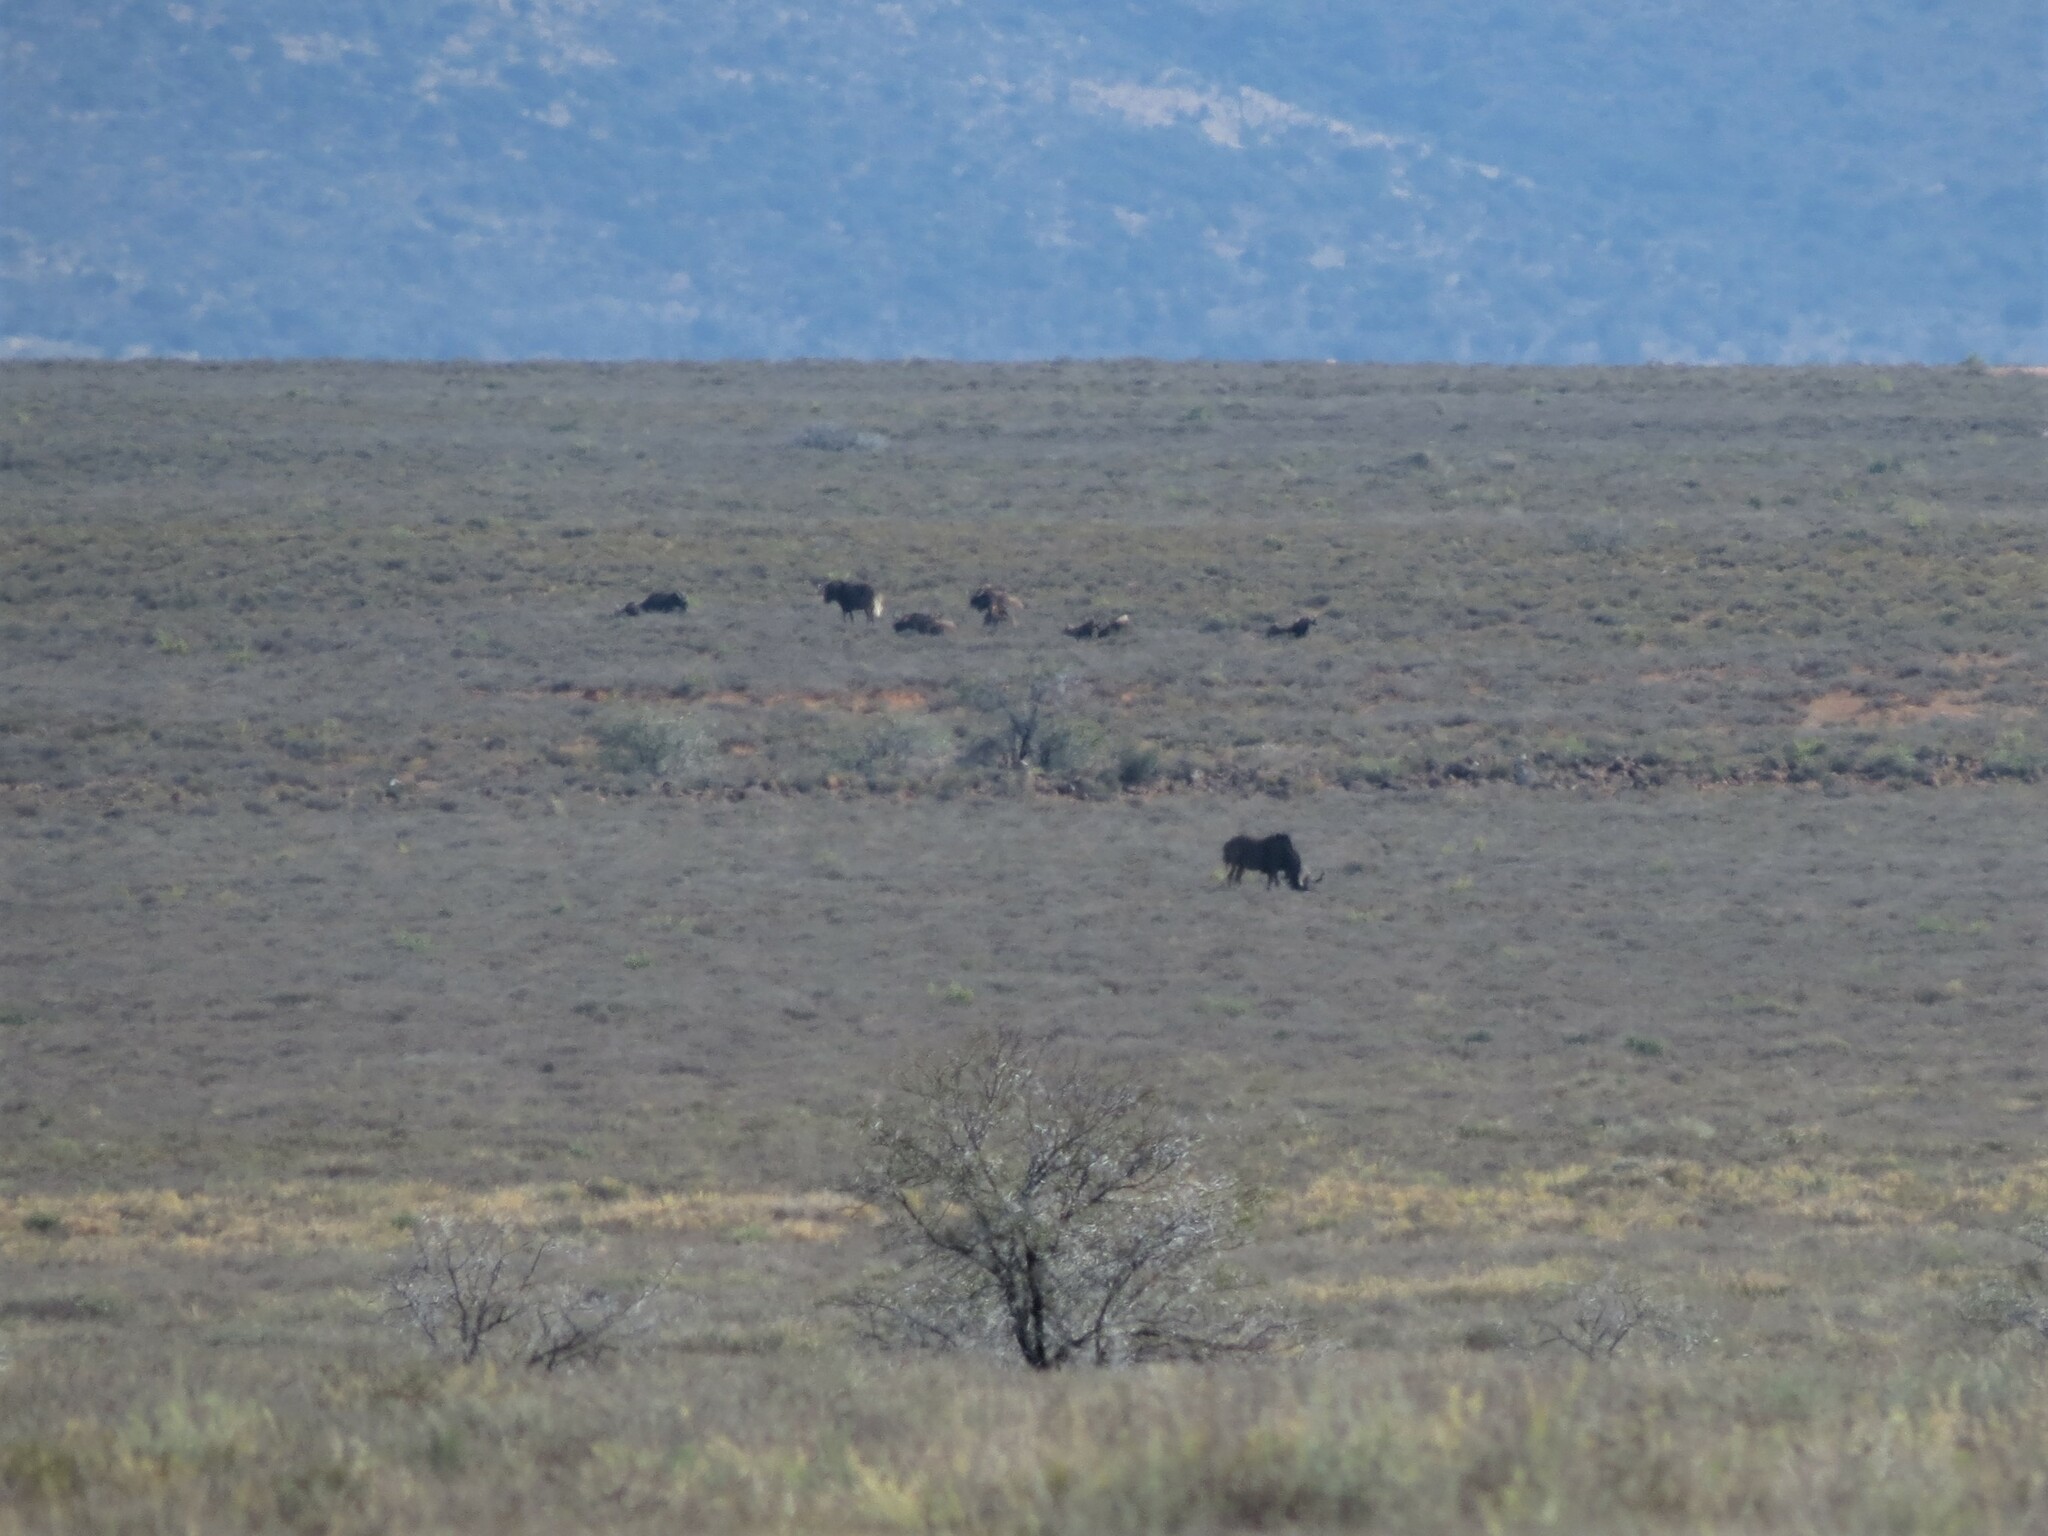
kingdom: Animalia
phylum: Chordata
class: Mammalia
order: Artiodactyla
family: Bovidae
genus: Connochaetes
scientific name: Connochaetes gnou
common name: Black wildebeest
